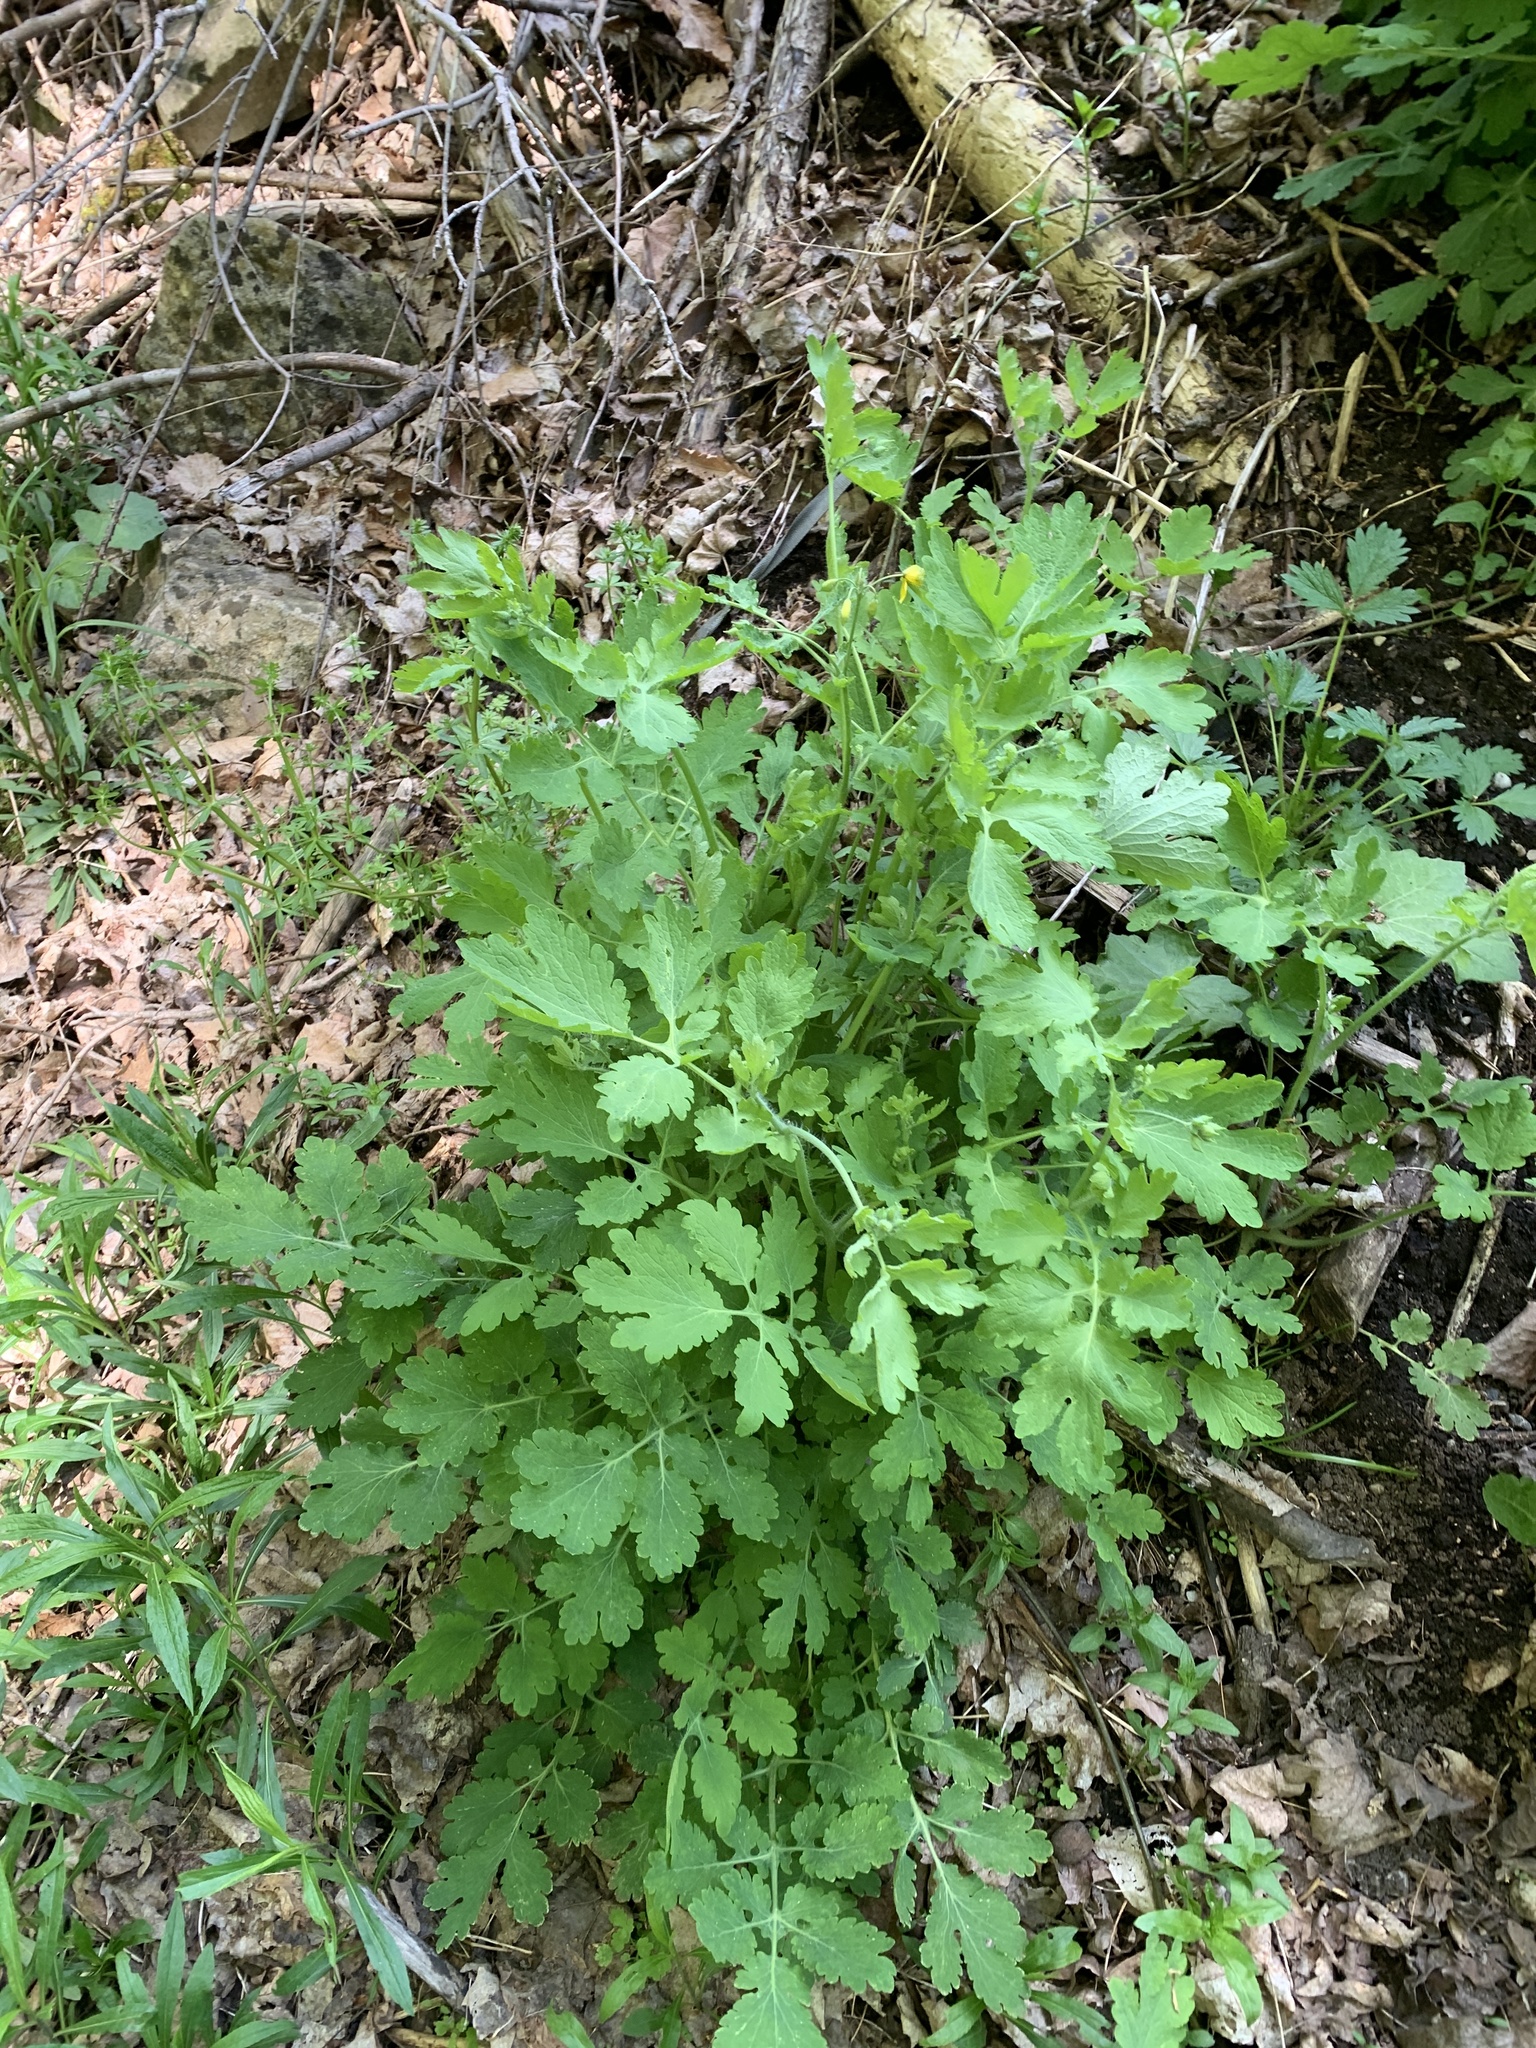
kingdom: Plantae
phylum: Tracheophyta
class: Magnoliopsida
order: Ranunculales
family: Papaveraceae
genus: Chelidonium
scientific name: Chelidonium majus
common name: Greater celandine
